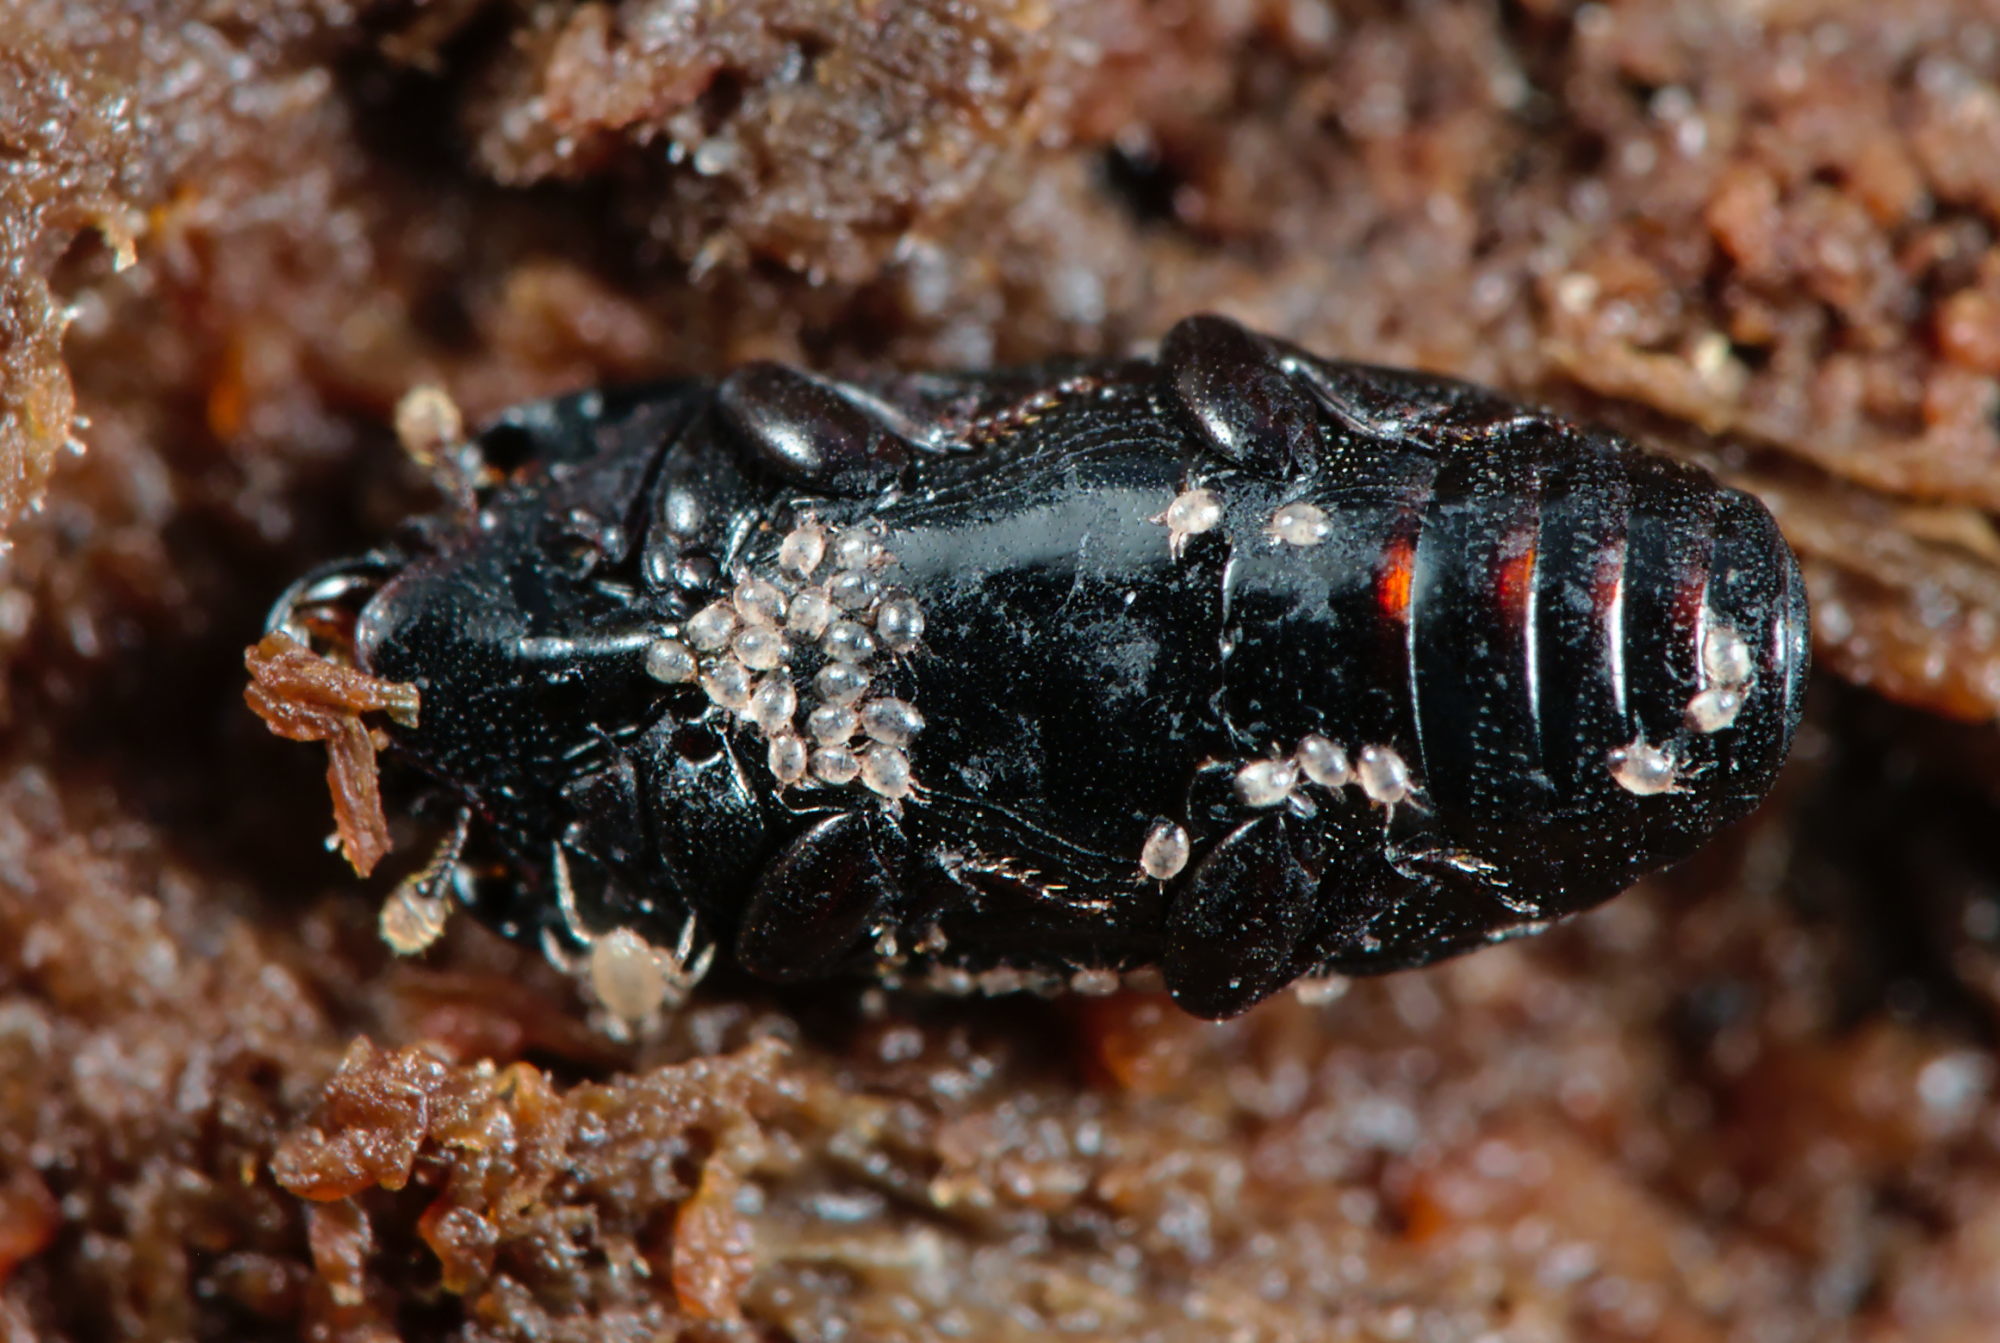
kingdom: Animalia
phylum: Arthropoda
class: Insecta
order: Coleoptera
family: Histeridae
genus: Platysoma
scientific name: Platysoma elongatum
